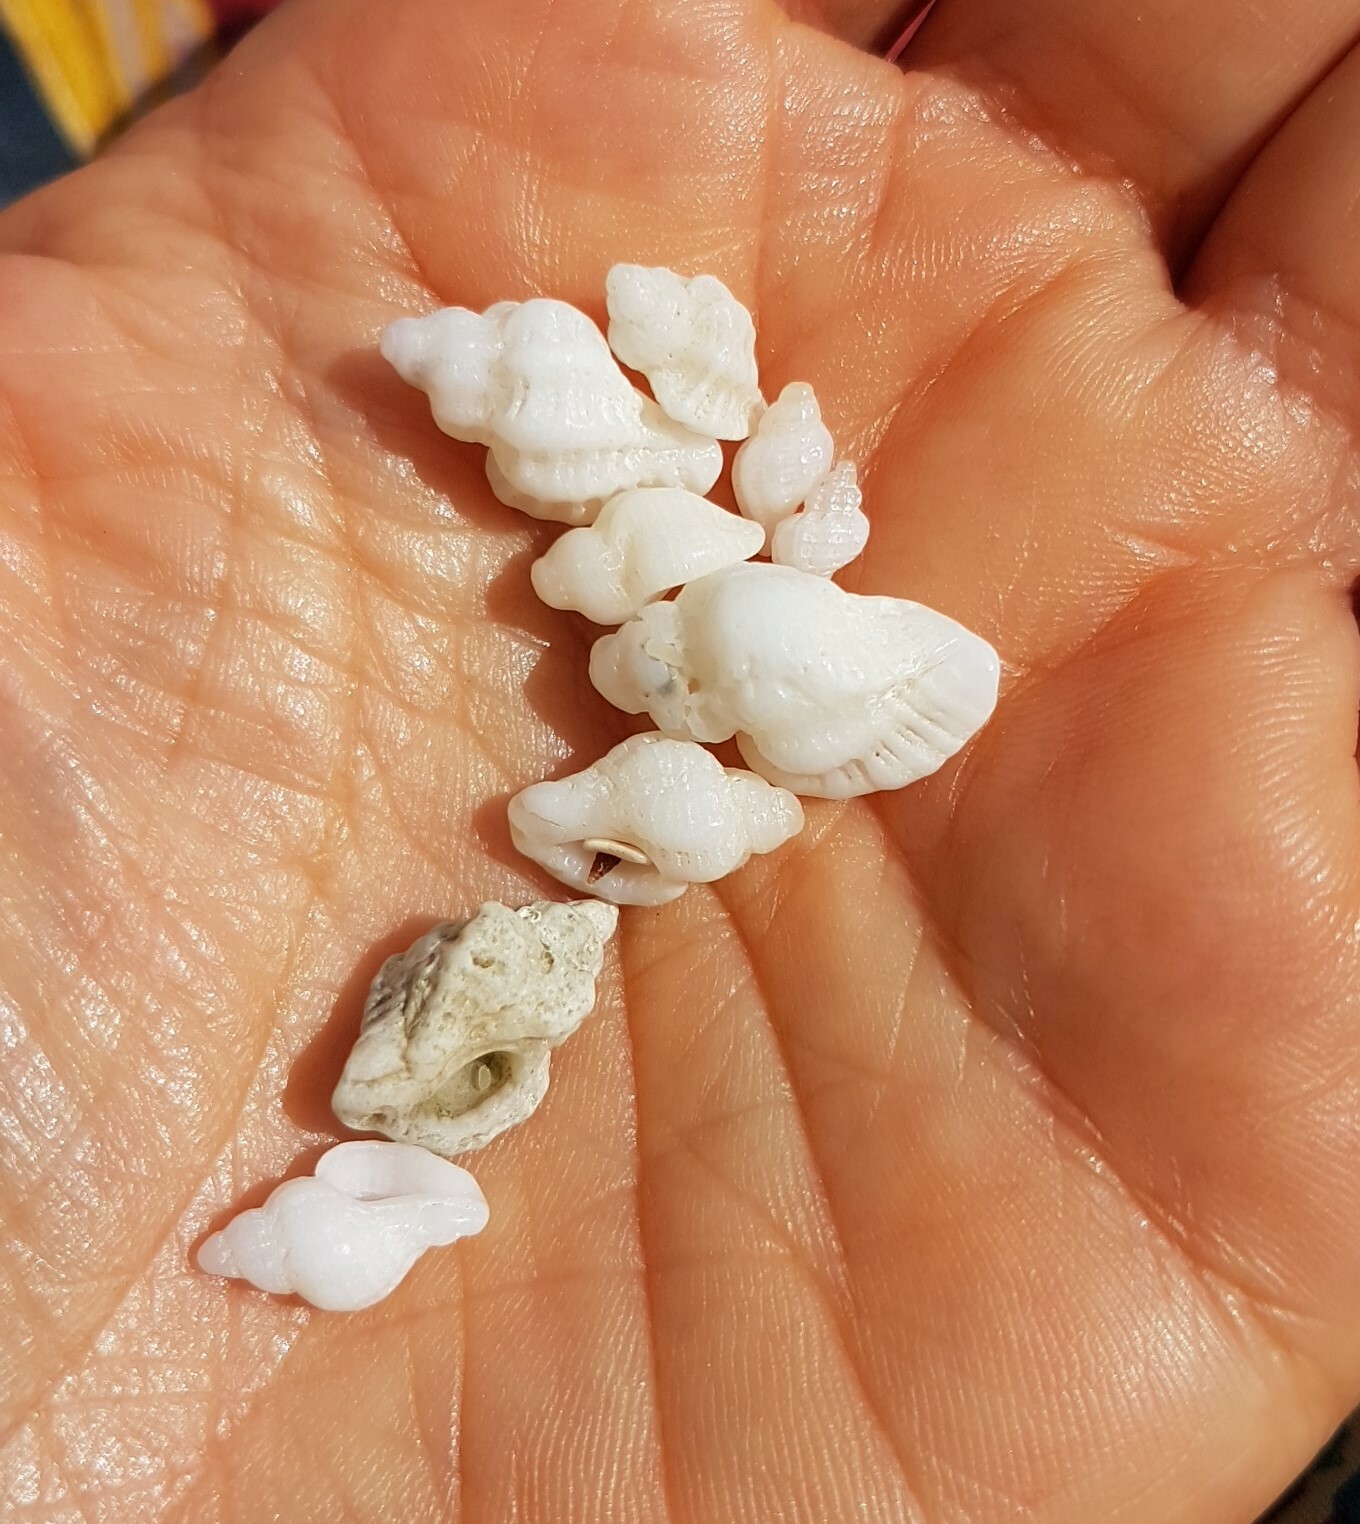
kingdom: Animalia
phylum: Mollusca
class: Gastropoda
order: Neogastropoda
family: Muricidae
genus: Ocenebra
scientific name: Ocenebra erinaceus
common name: European sting winkle
